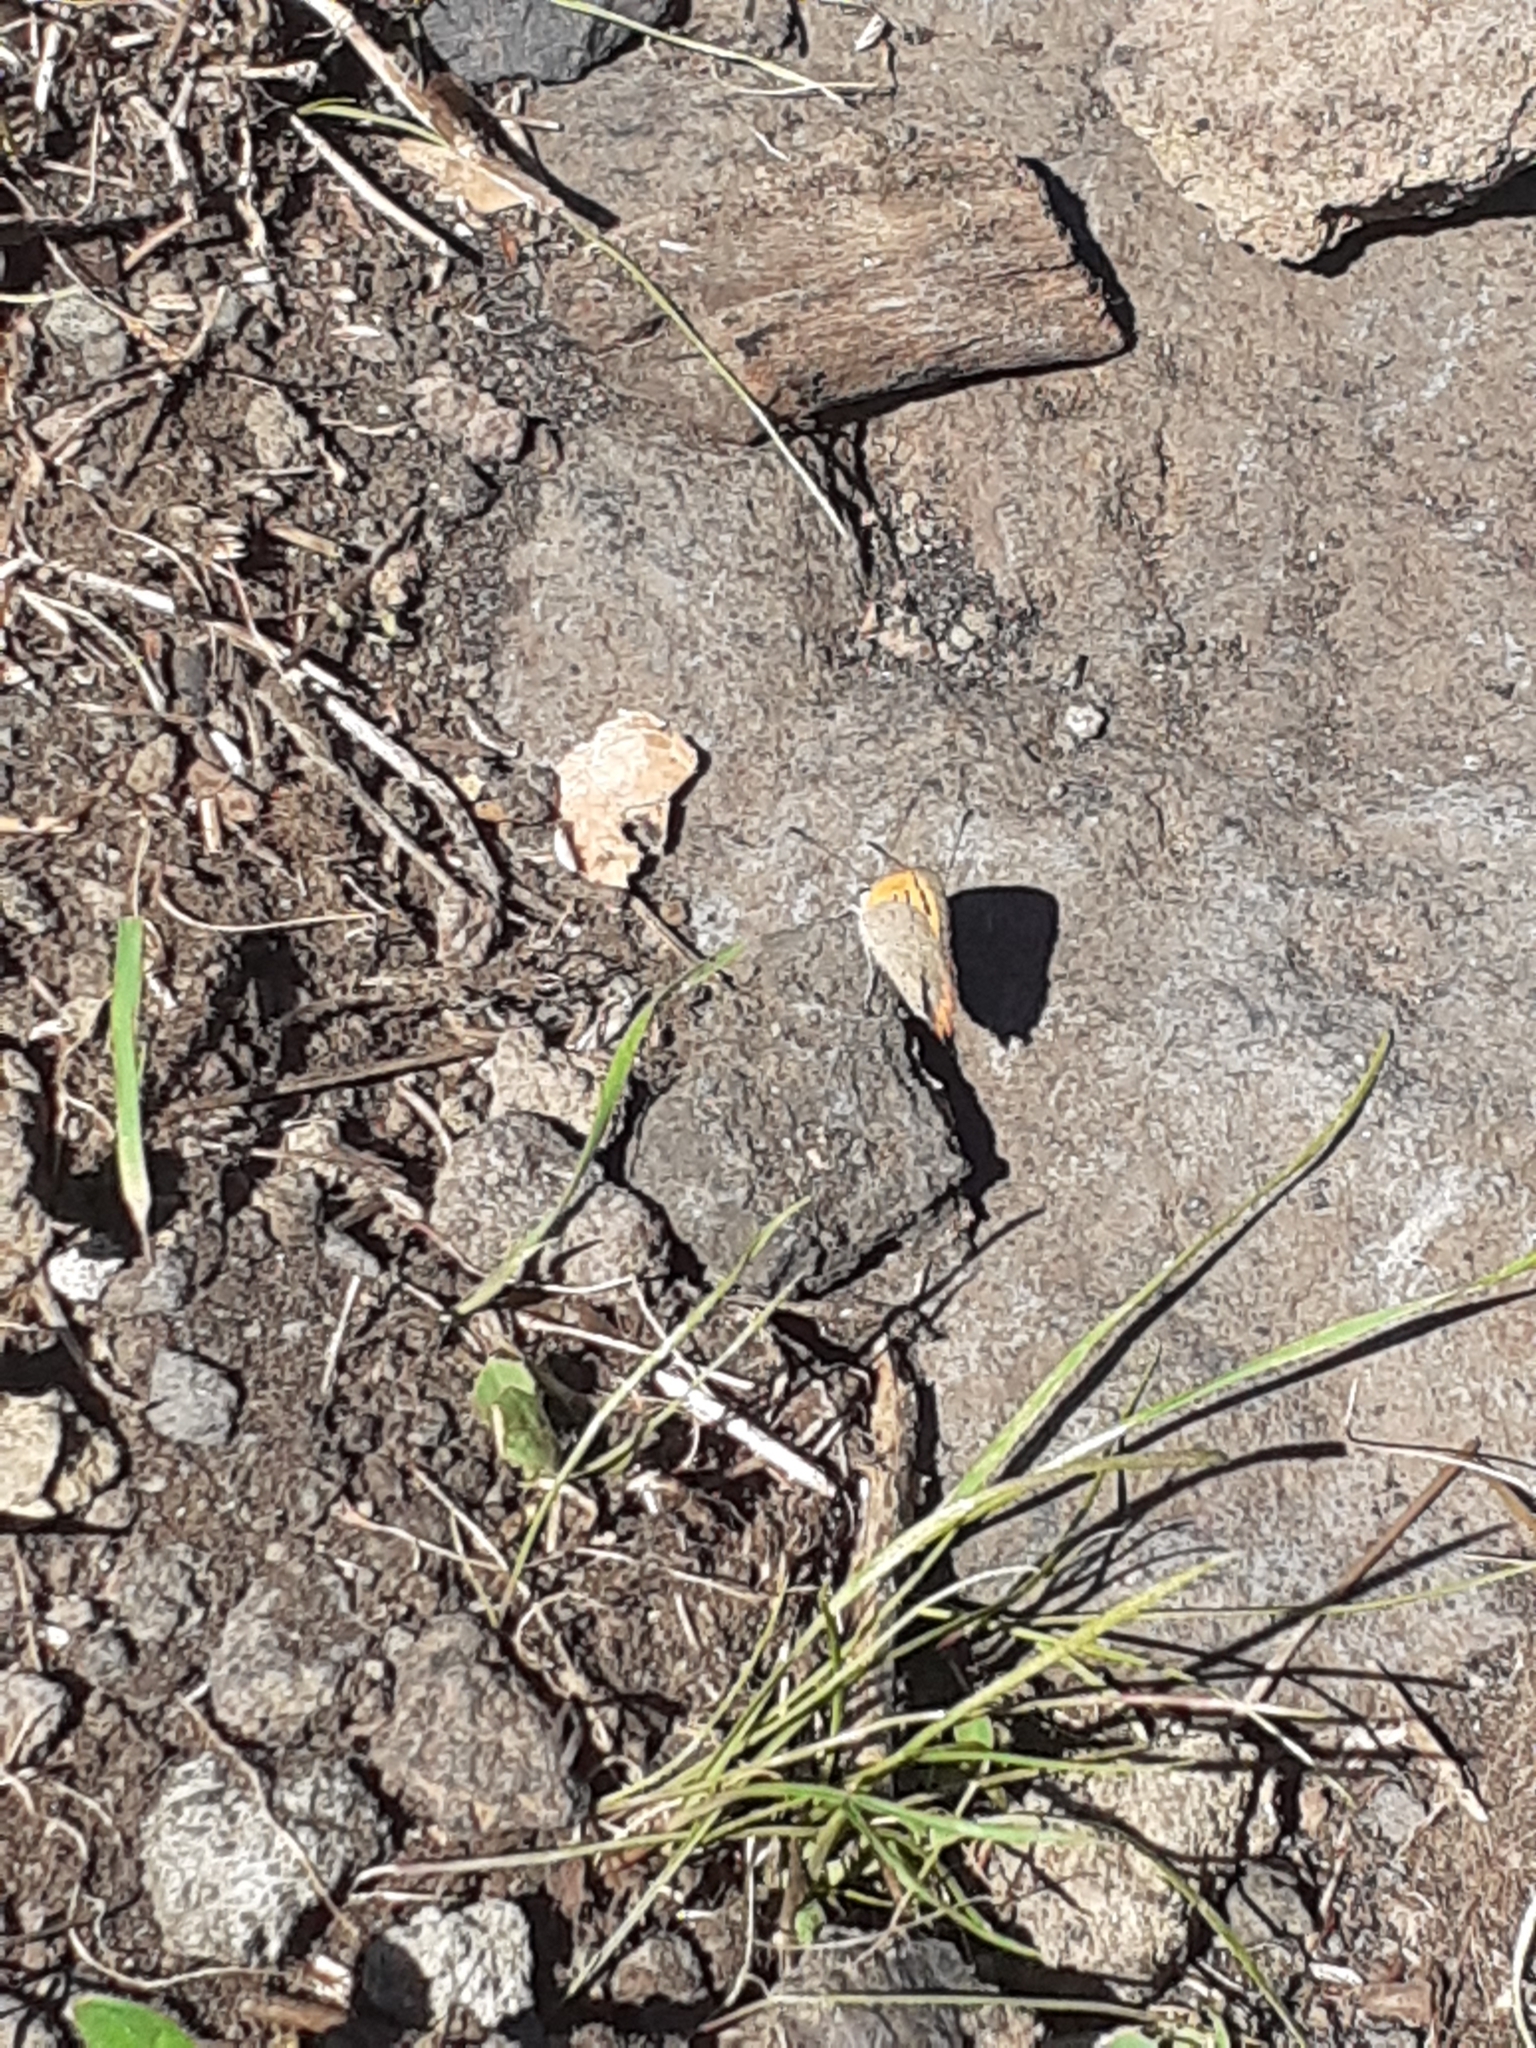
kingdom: Animalia
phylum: Arthropoda
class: Insecta
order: Lepidoptera
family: Lycaenidae
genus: Lycaena
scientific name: Lycaena phlaeas
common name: Small copper
